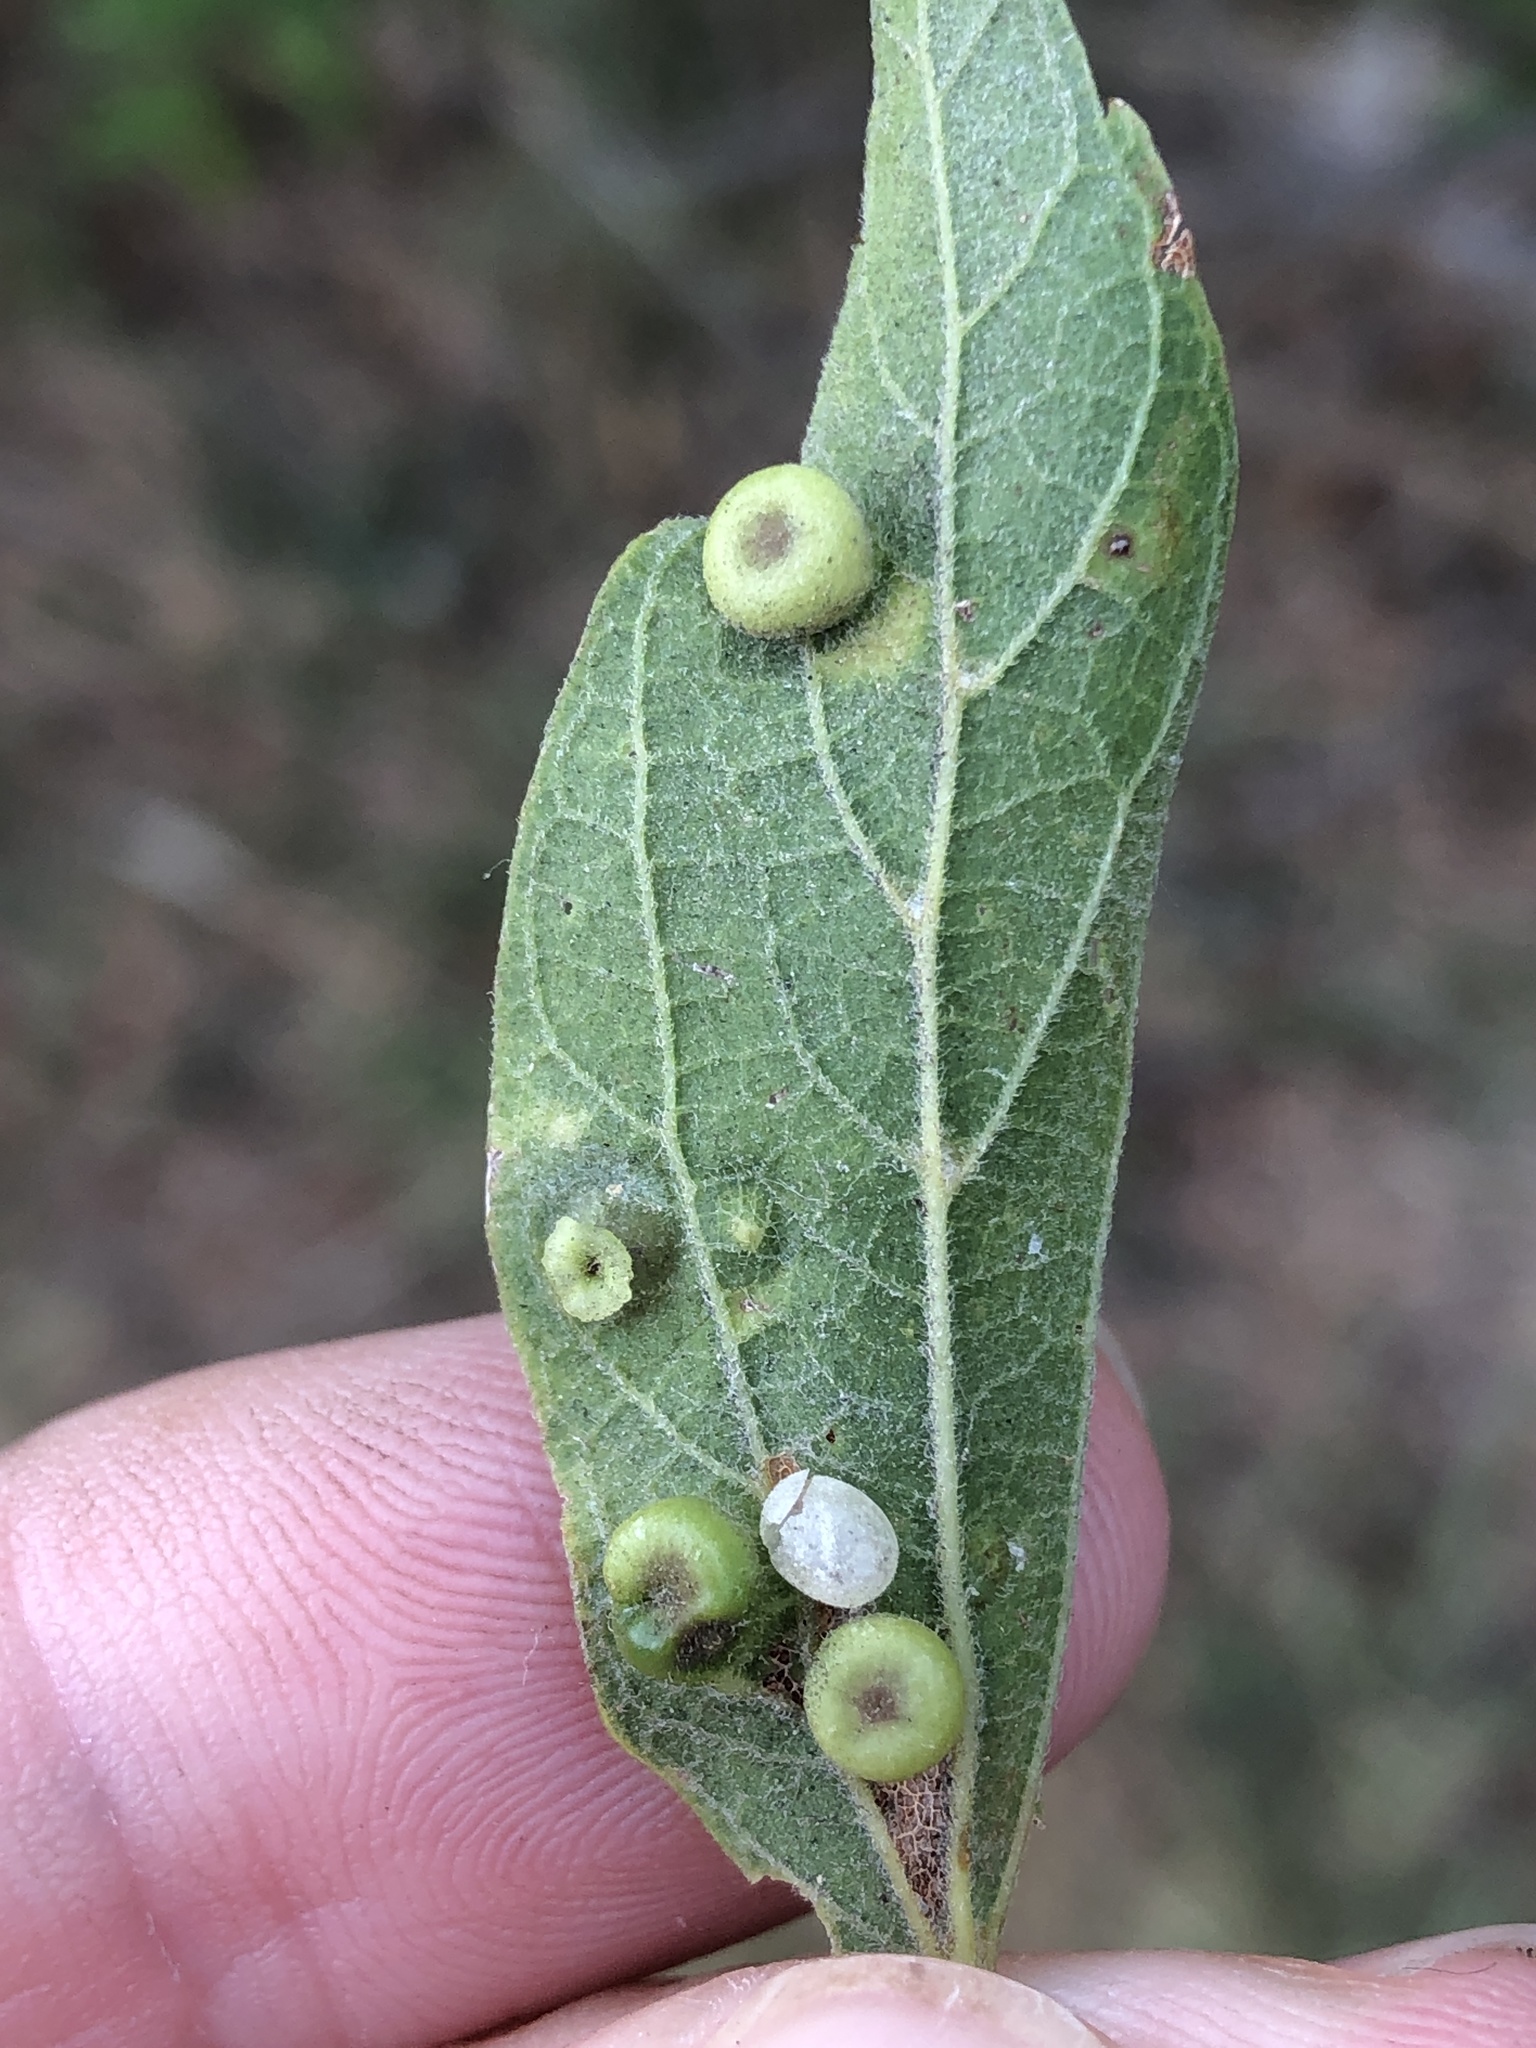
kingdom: Animalia
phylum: Arthropoda
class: Insecta
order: Hemiptera
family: Aphalaridae
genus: Pachypsylla
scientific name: Pachypsylla celtidismamma
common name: Hackberry nipplegall psyllid
